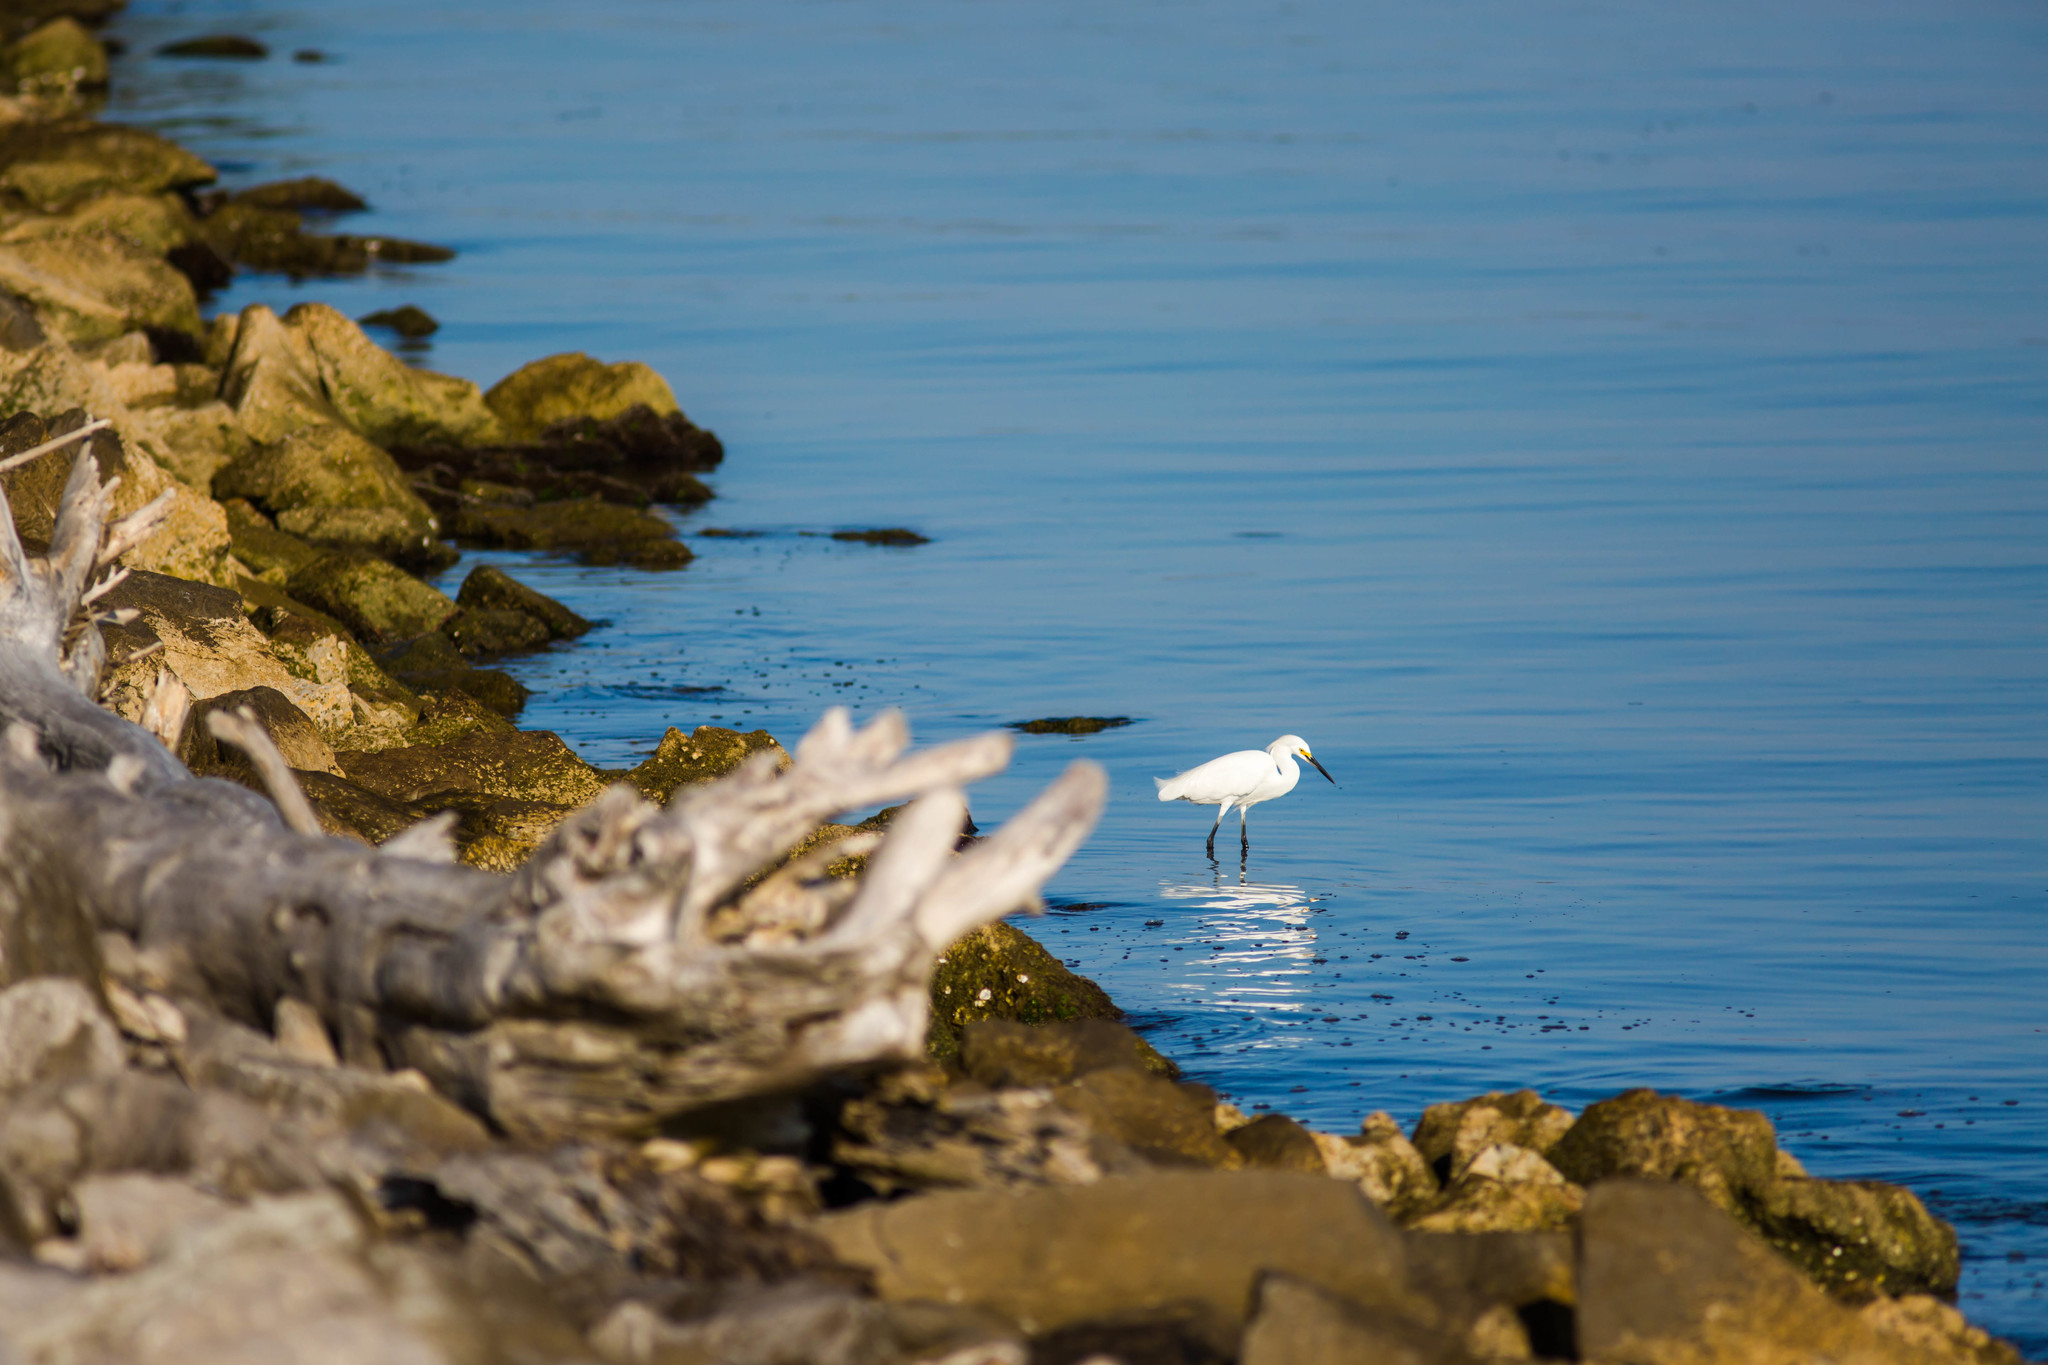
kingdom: Animalia
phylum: Chordata
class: Aves
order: Pelecaniformes
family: Ardeidae
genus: Egretta
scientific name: Egretta thula
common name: Snowy egret
